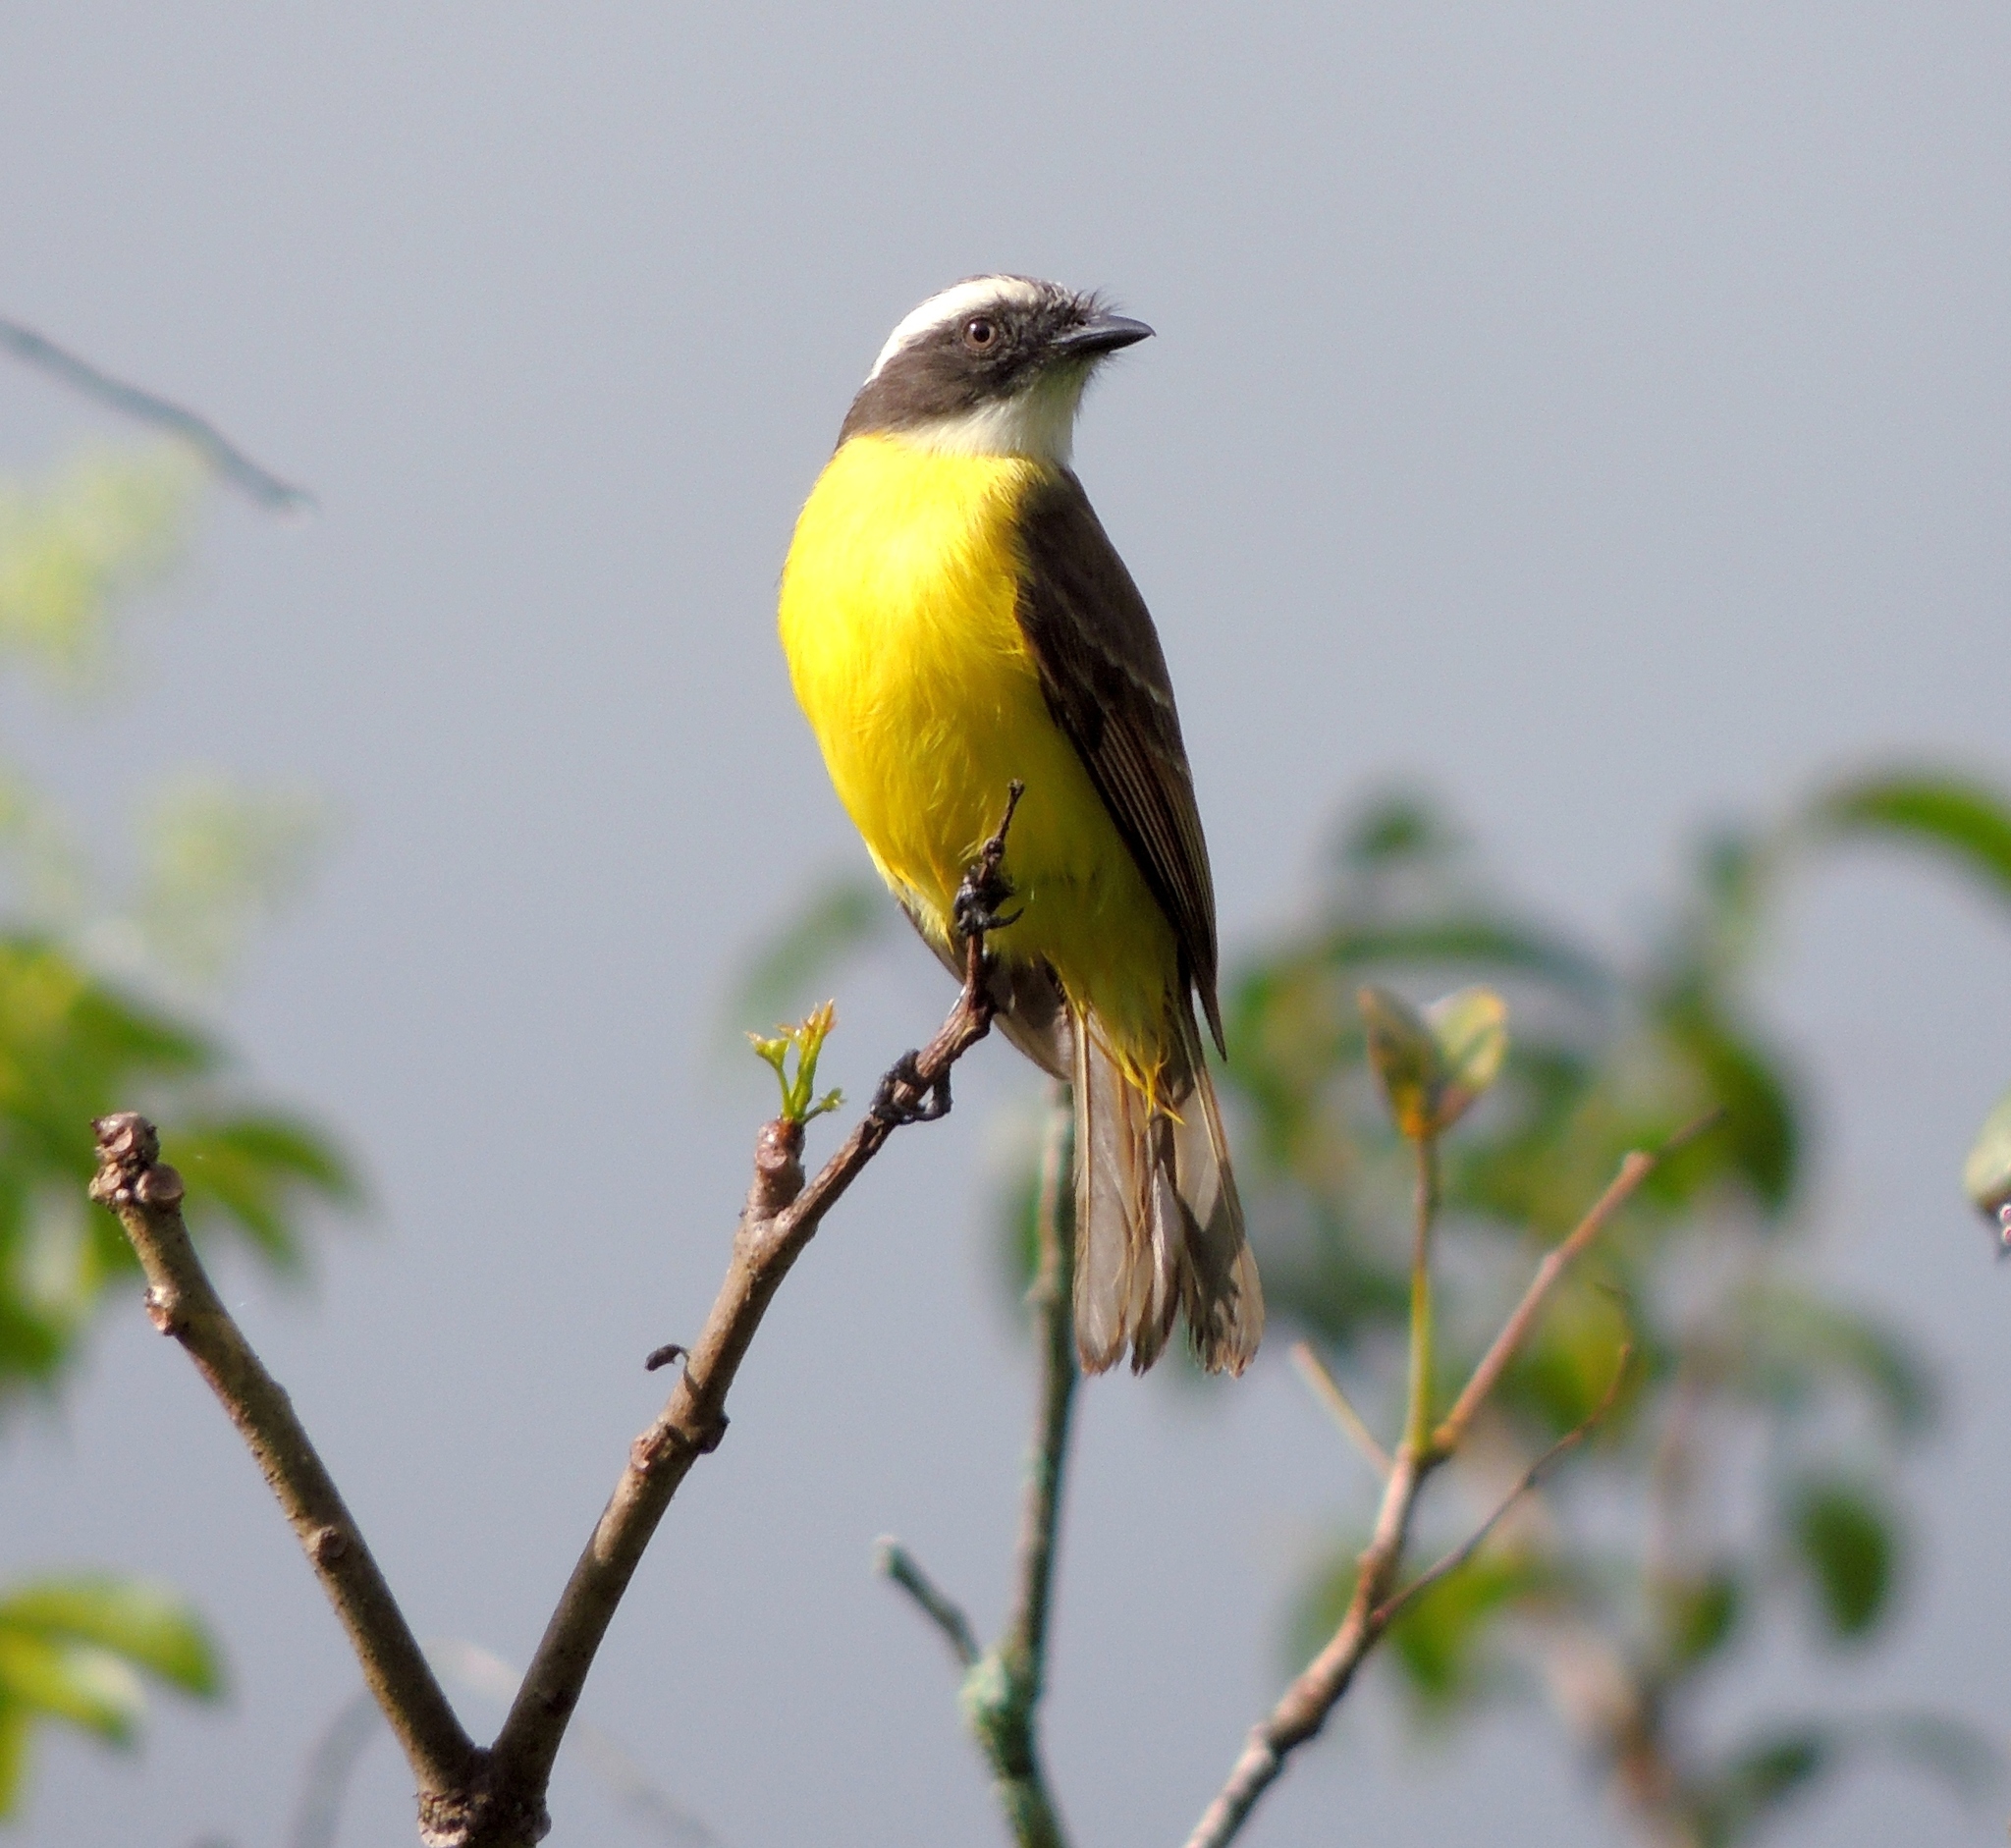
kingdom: Animalia
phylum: Chordata
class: Aves
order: Passeriformes
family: Tyrannidae
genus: Myiozetetes
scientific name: Myiozetetes similis
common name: Social flycatcher
